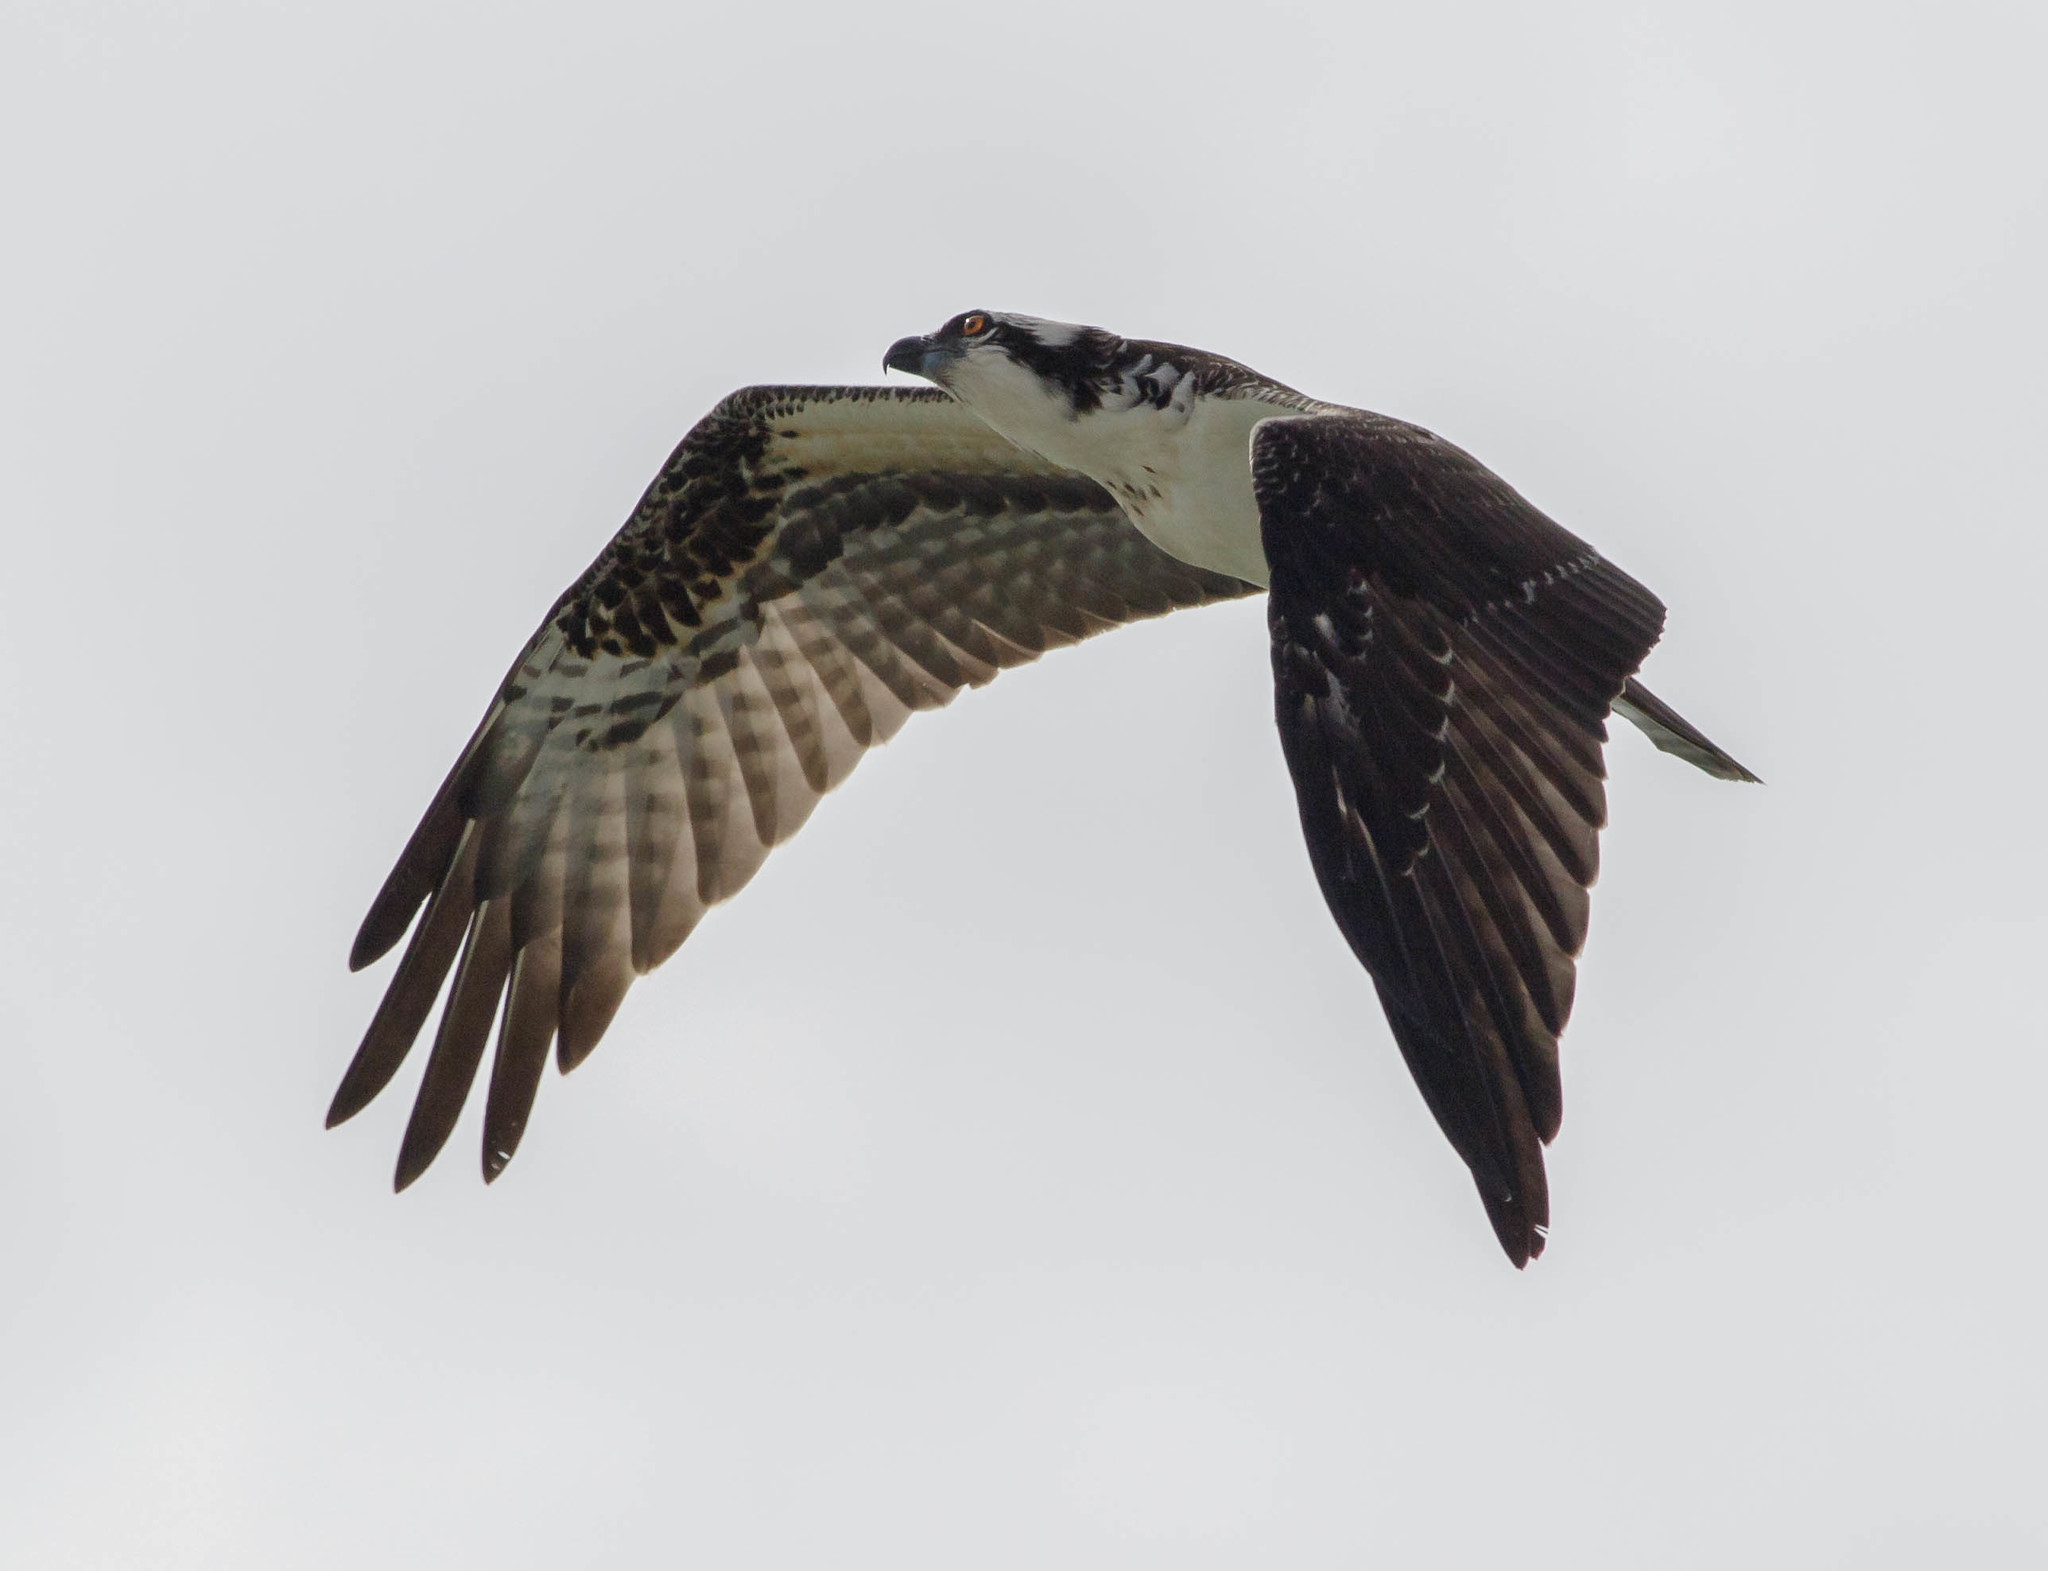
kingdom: Animalia
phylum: Chordata
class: Aves
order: Accipitriformes
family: Pandionidae
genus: Pandion
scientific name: Pandion haliaetus
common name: Osprey
